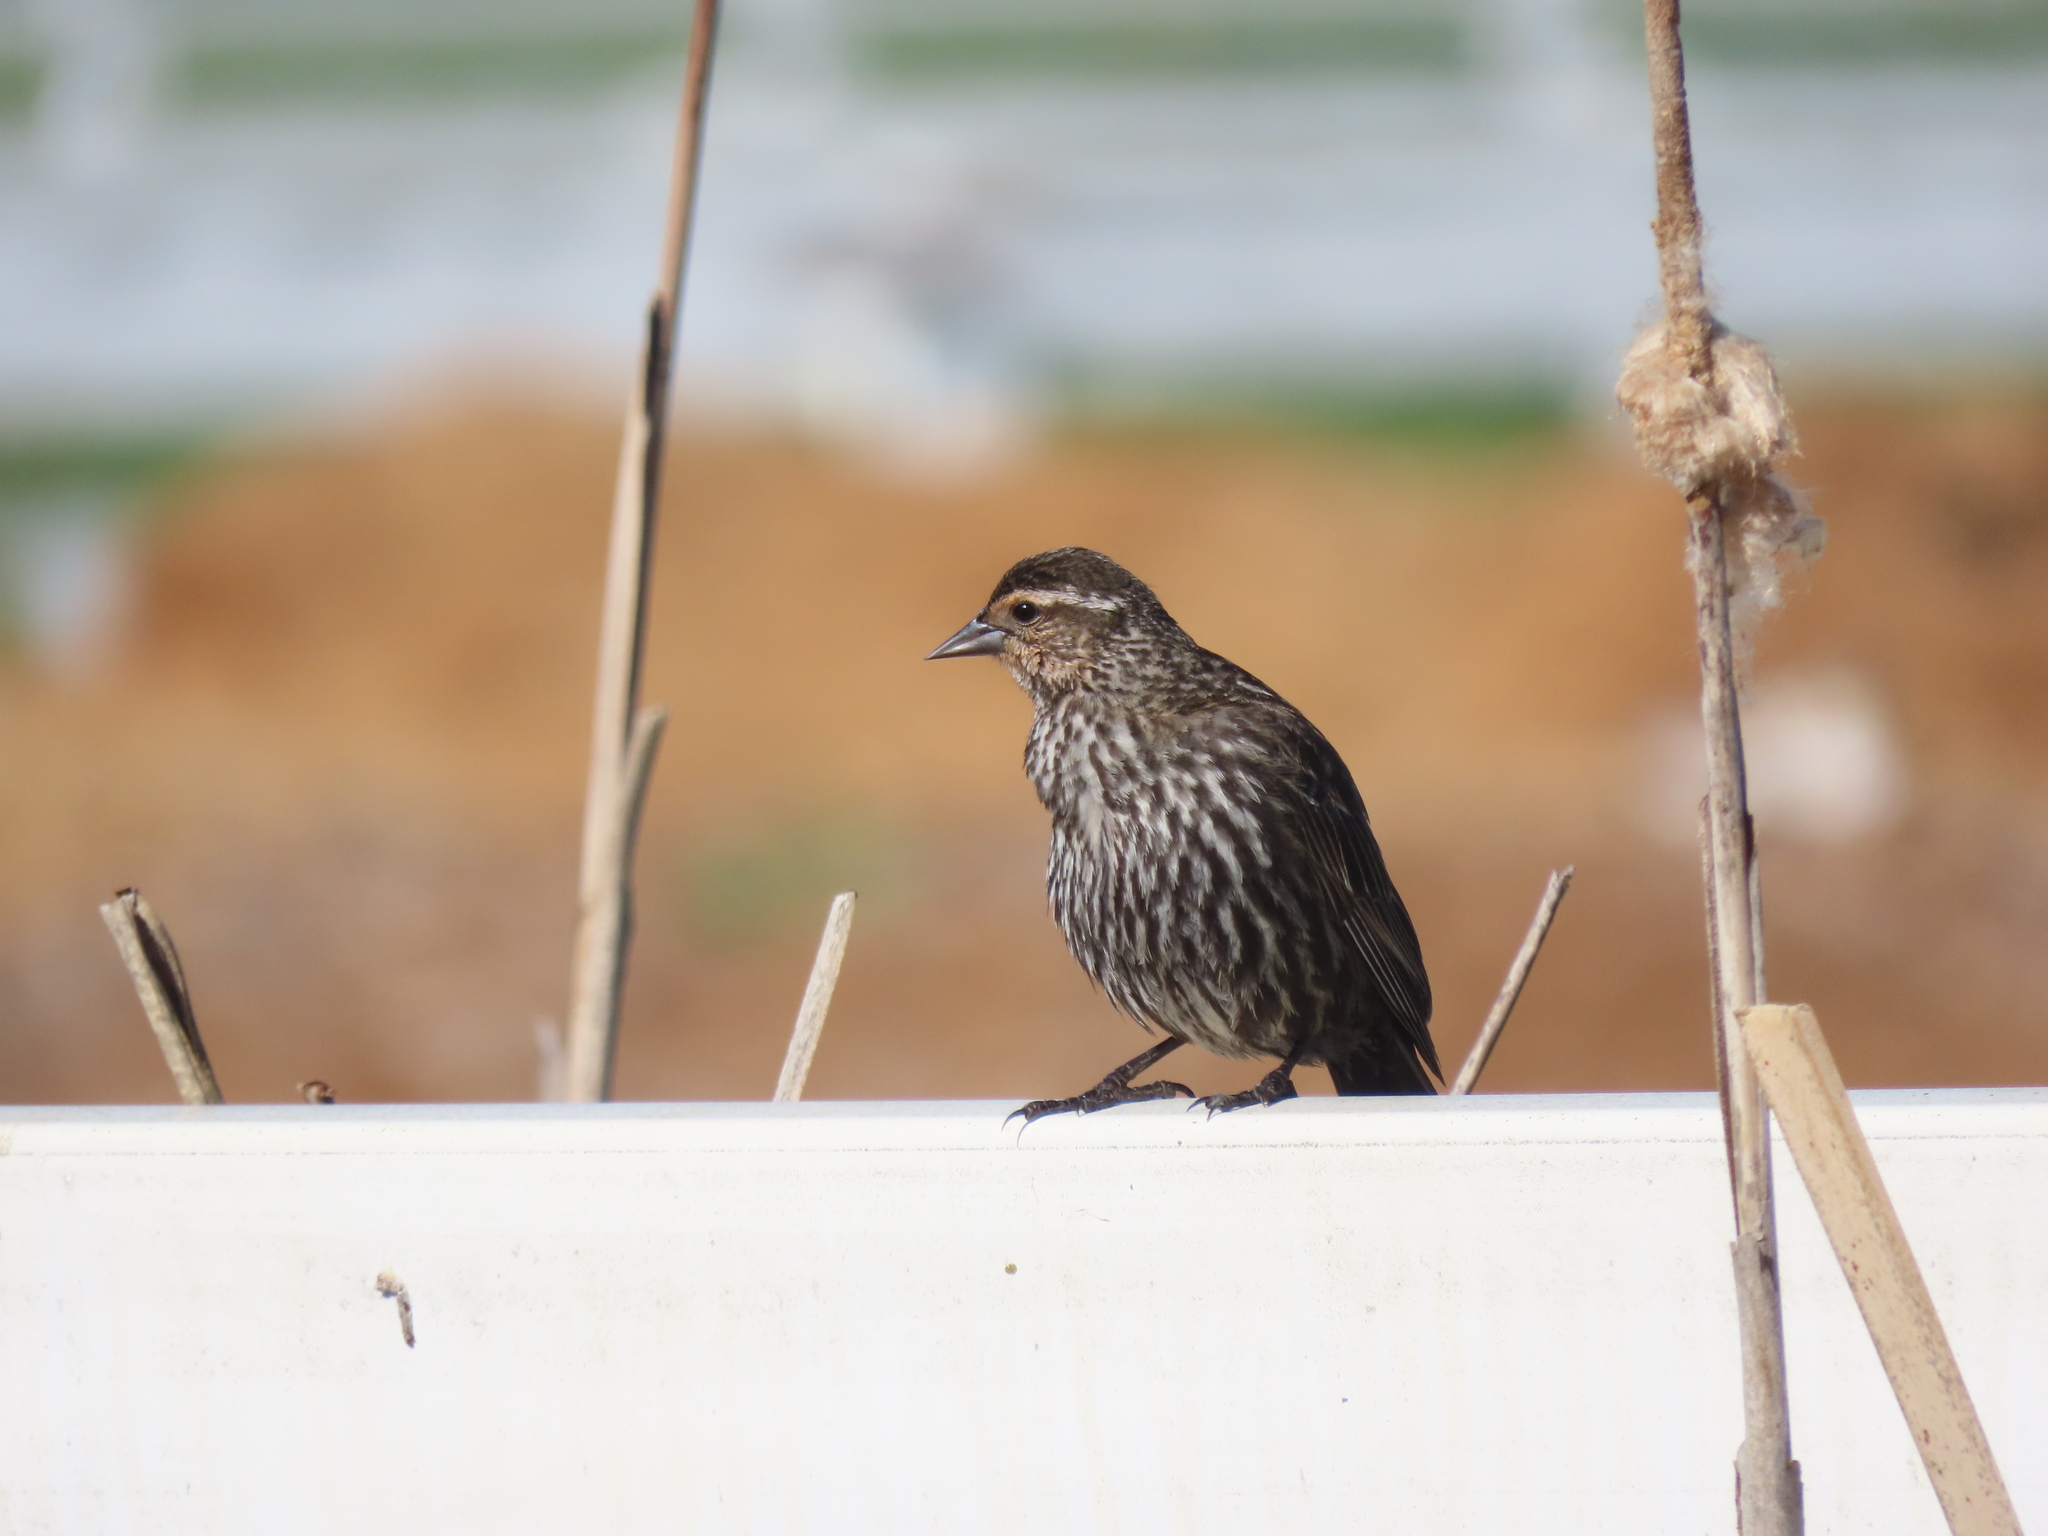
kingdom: Animalia
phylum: Chordata
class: Aves
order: Passeriformes
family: Icteridae
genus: Agelaius
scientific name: Agelaius phoeniceus
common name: Red-winged blackbird
